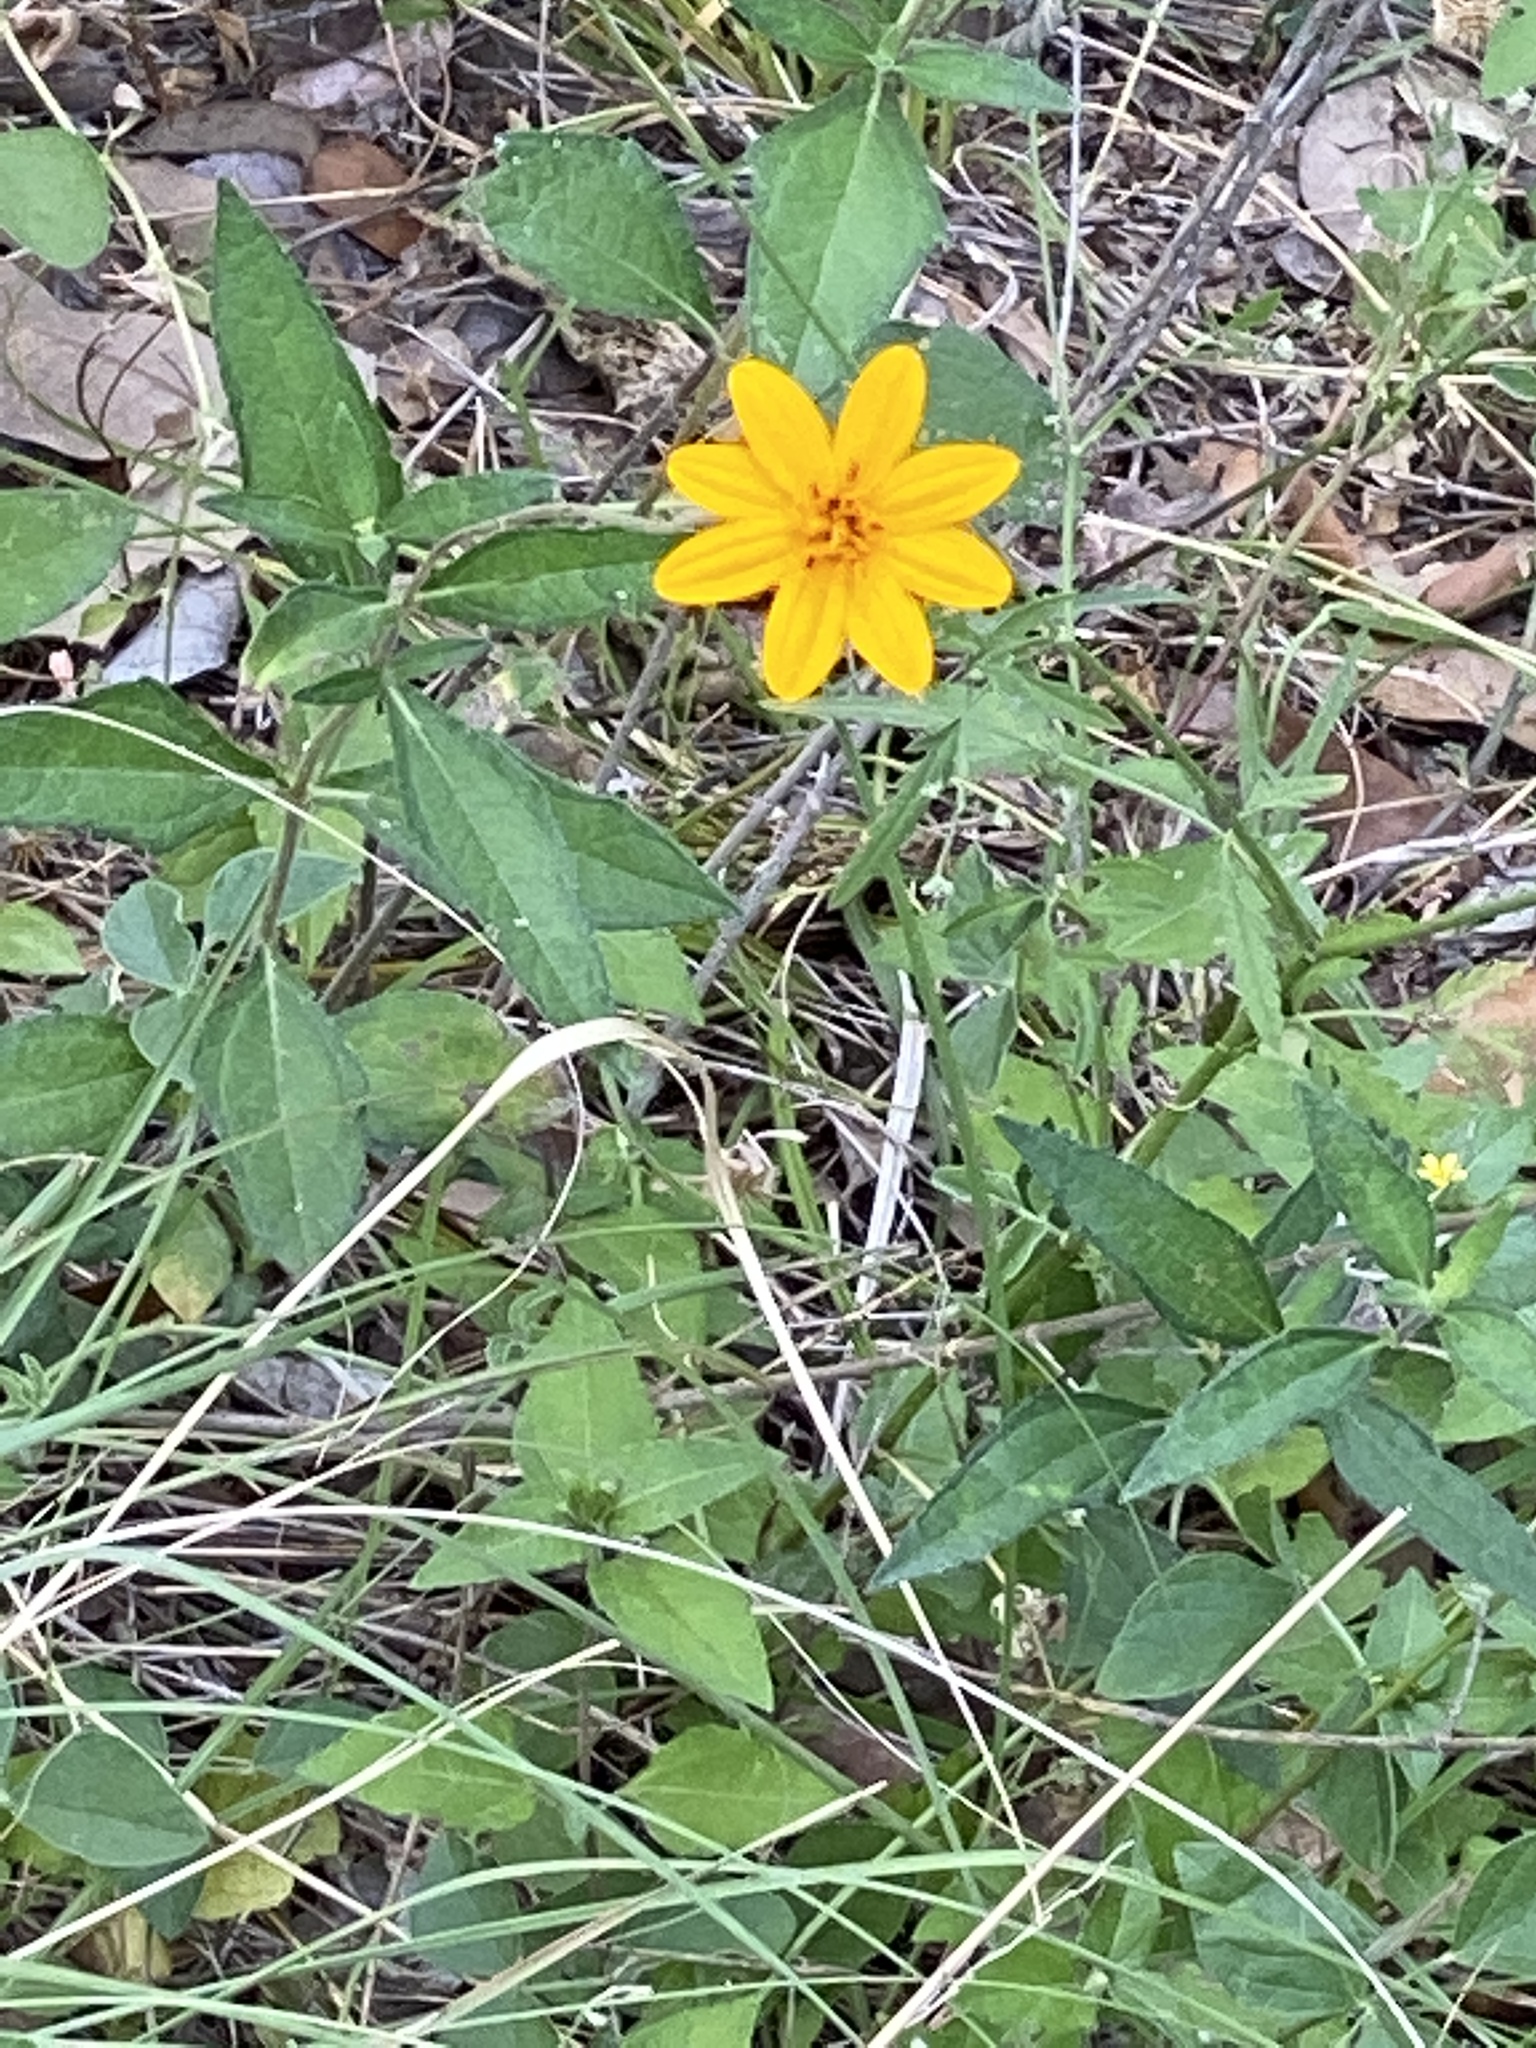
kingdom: Plantae
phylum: Tracheophyta
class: Magnoliopsida
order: Asterales
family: Asteraceae
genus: Wedelia
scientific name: Wedelia acapulcensis
